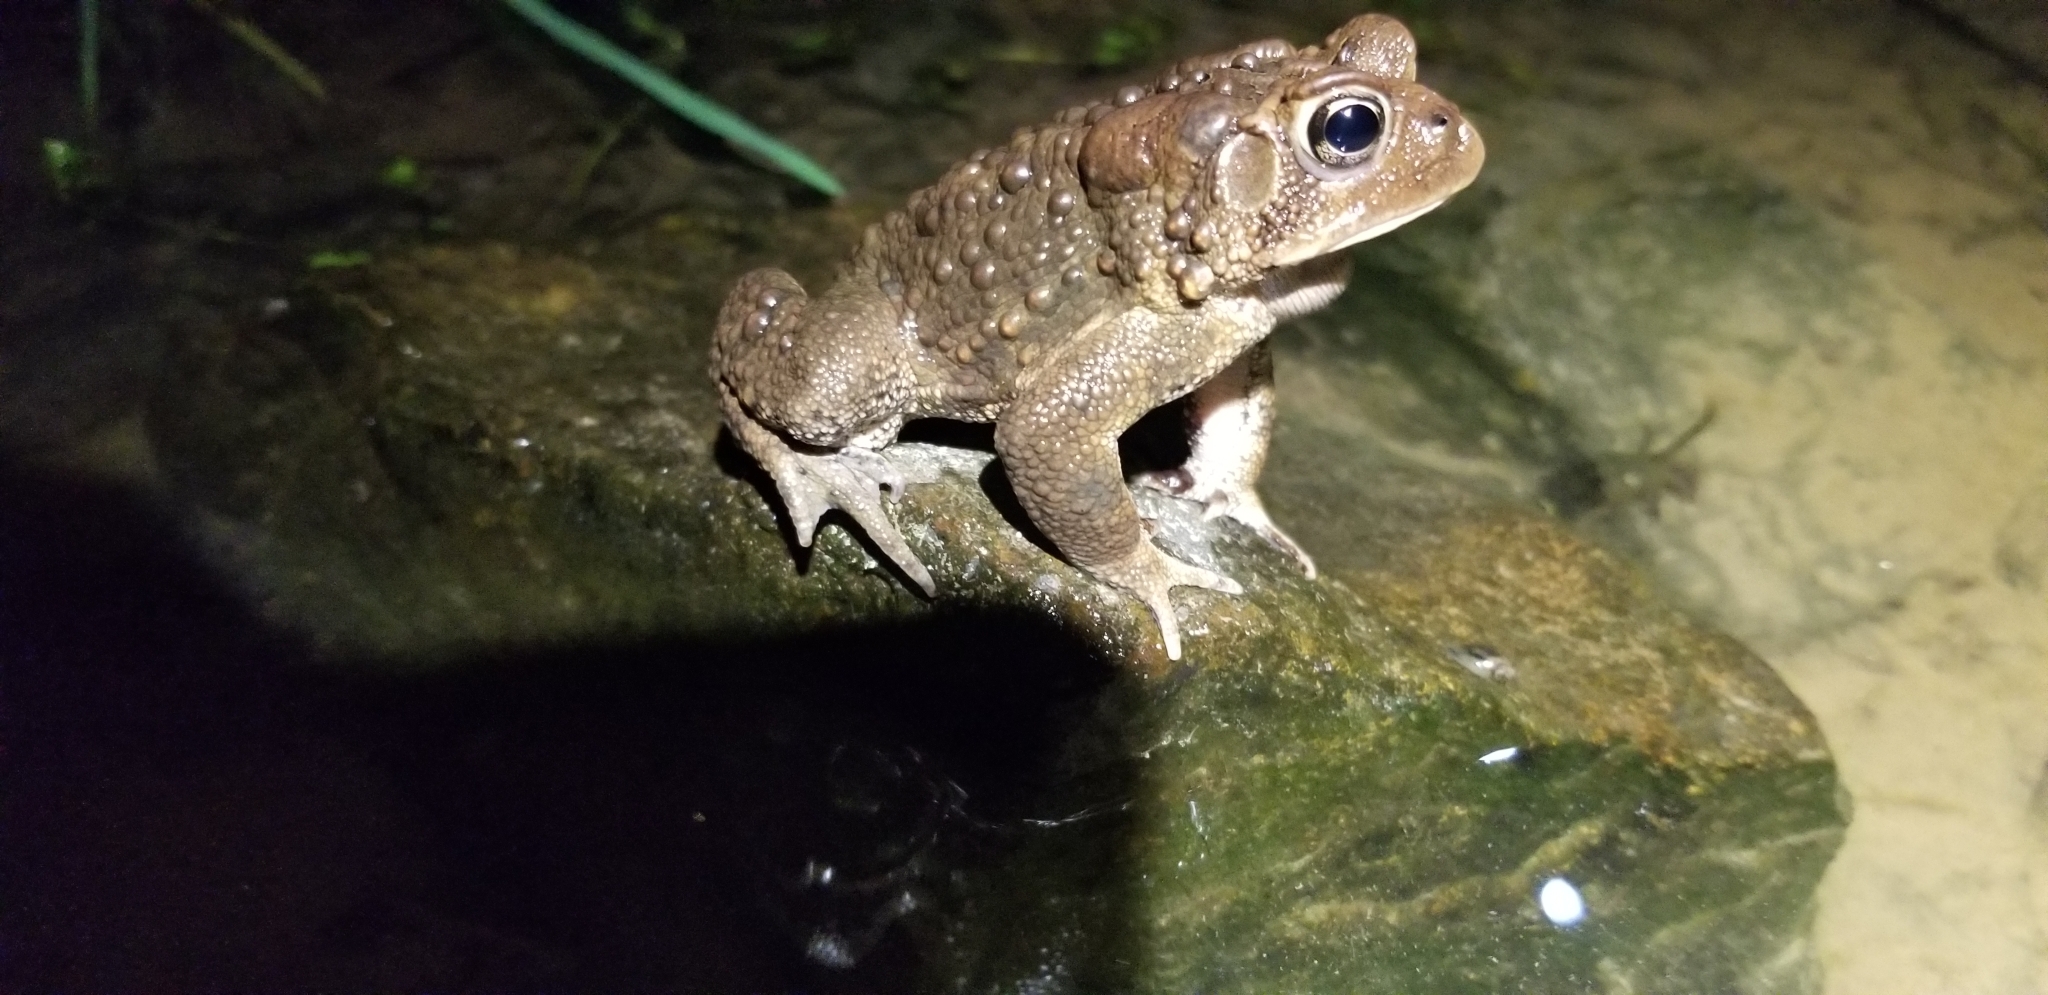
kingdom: Animalia
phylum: Chordata
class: Amphibia
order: Anura
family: Bufonidae
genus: Anaxyrus
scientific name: Anaxyrus americanus
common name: American toad
